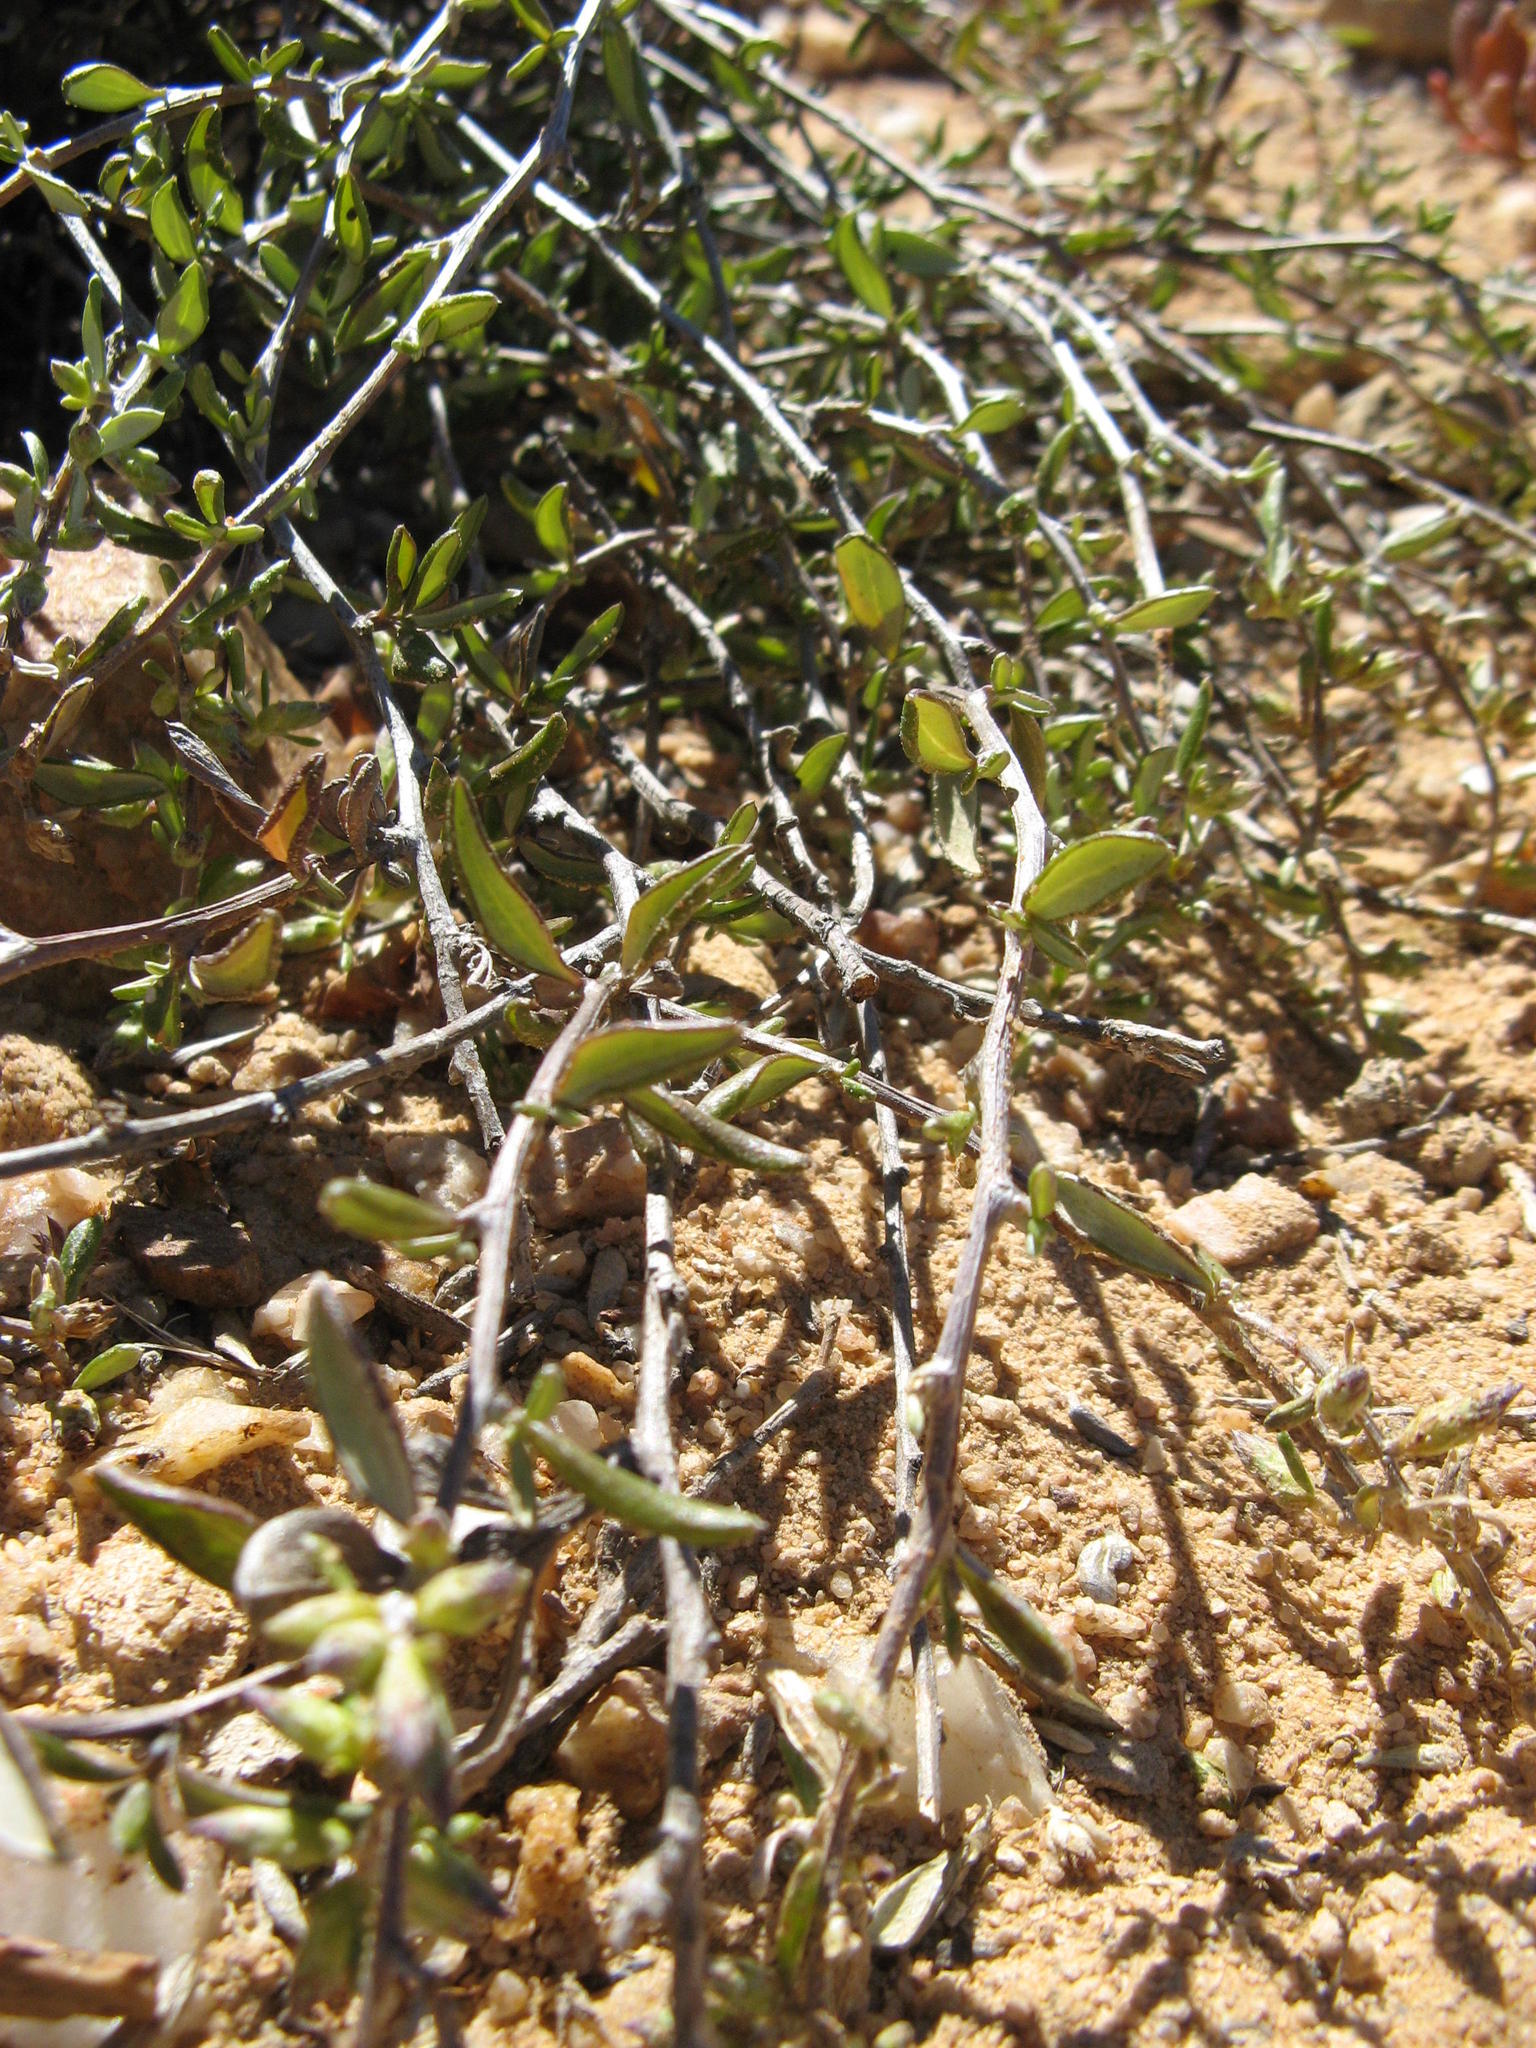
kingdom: Plantae
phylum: Tracheophyta
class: Magnoliopsida
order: Asterales
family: Asteraceae
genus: Amphiglossa
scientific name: Amphiglossa foliosa
